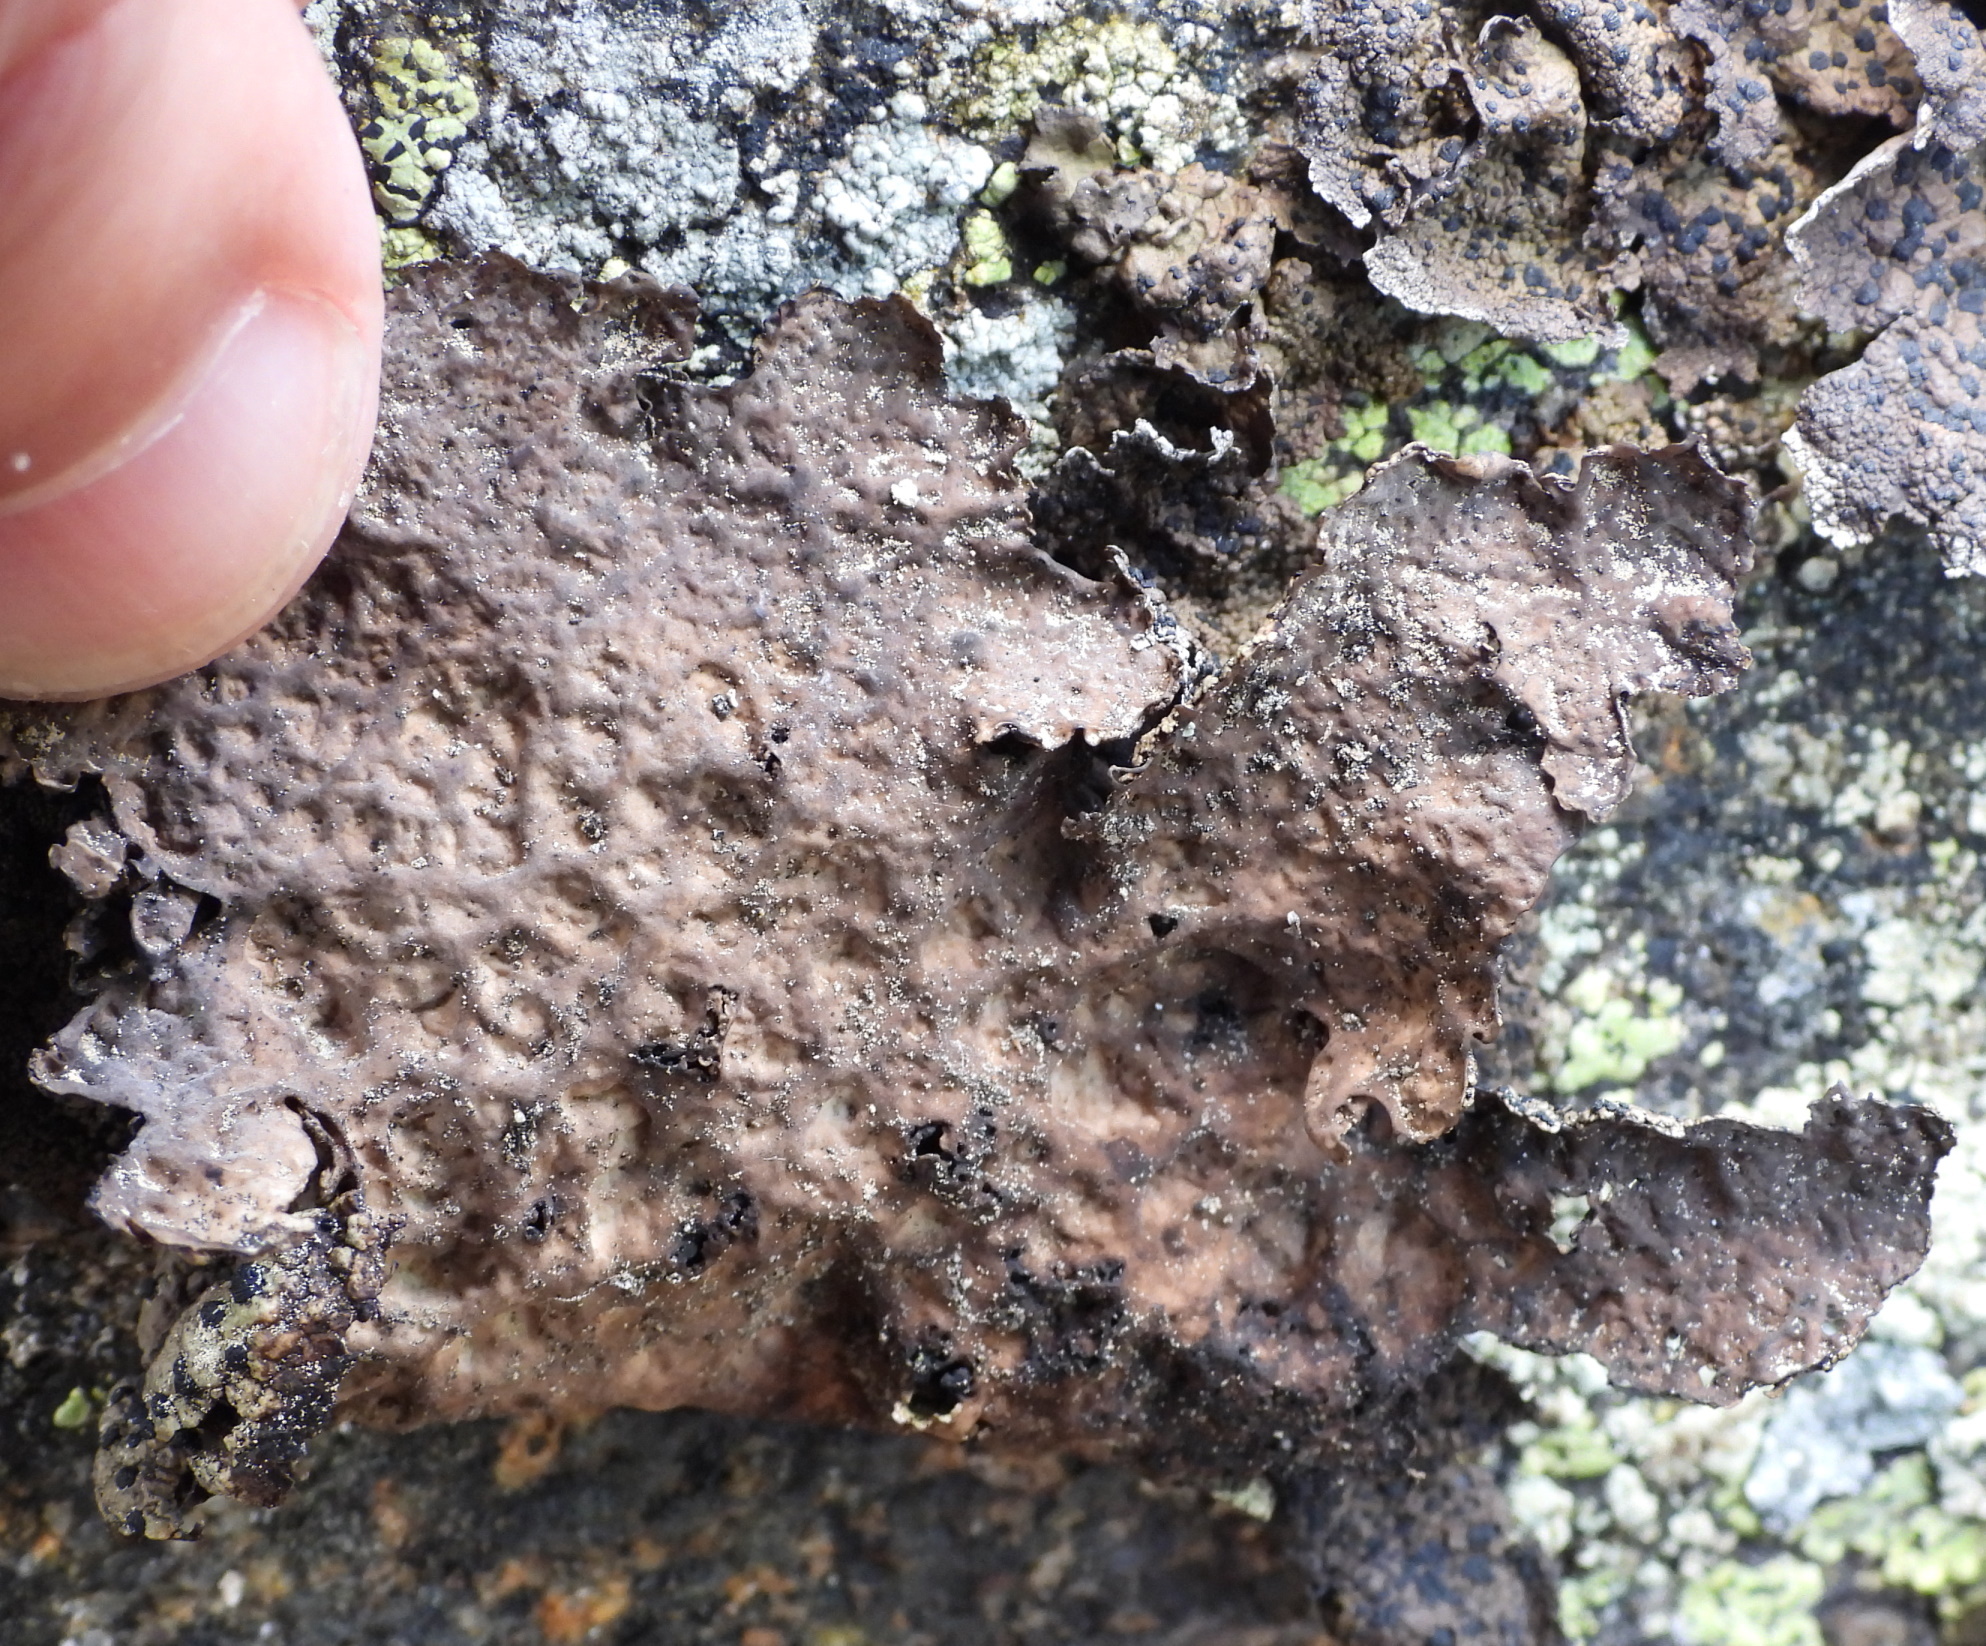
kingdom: Fungi
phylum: Ascomycota
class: Lecanoromycetes
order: Umbilicariales
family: Umbilicariaceae
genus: Umbilicaria
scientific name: Umbilicaria torrefacta
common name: Punctured rock tripe lichen
